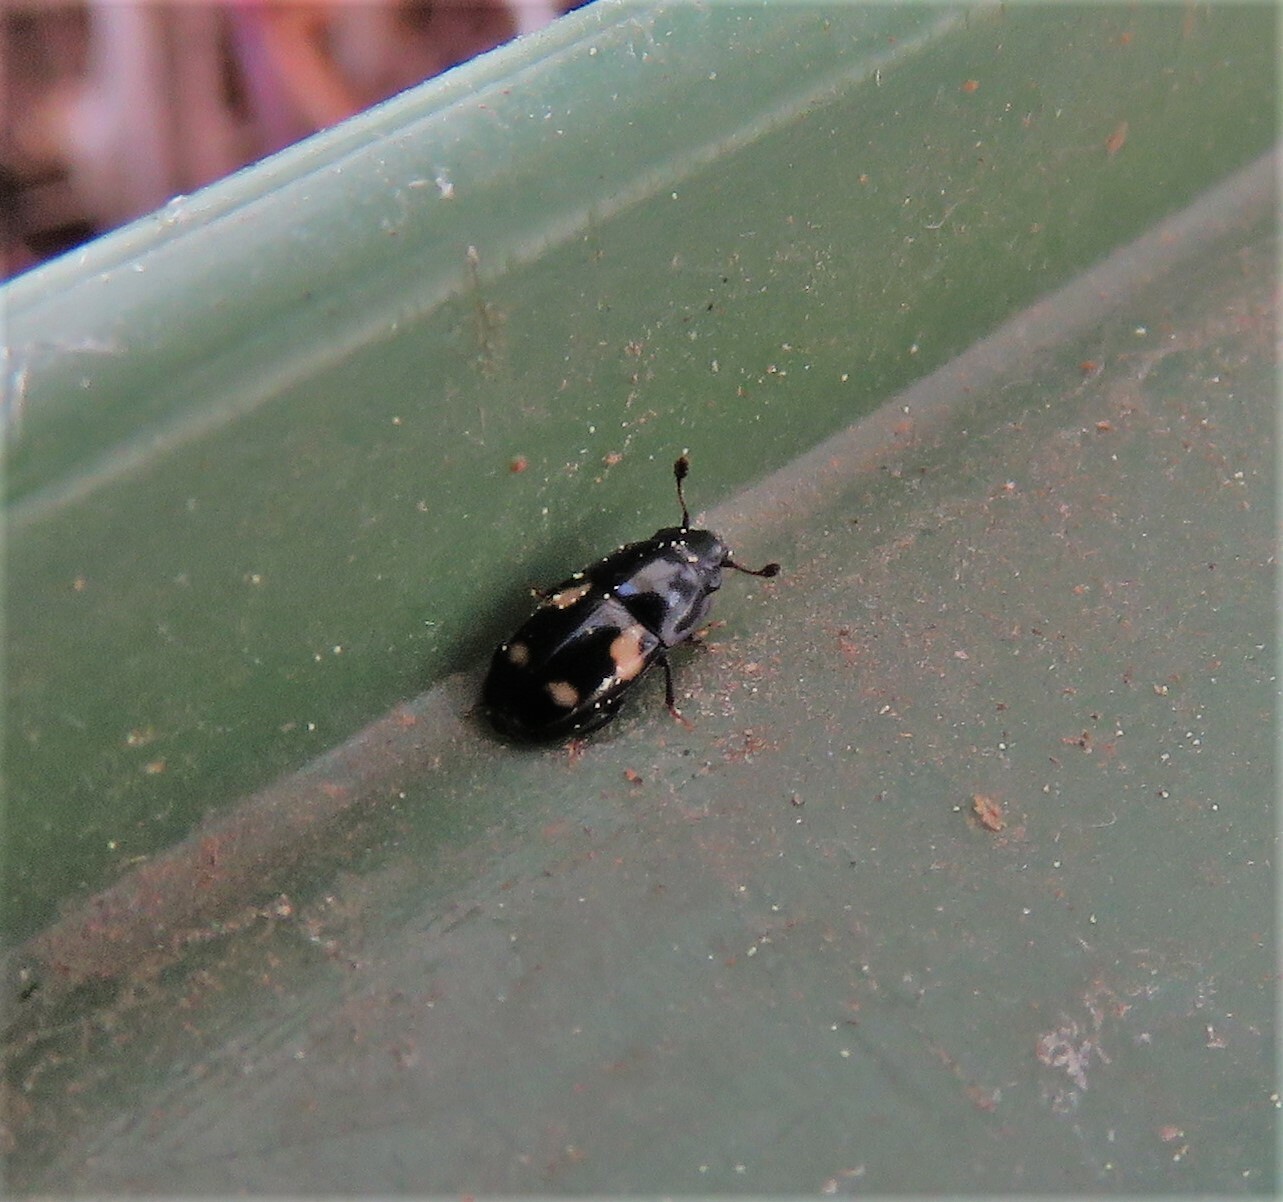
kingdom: Animalia
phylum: Arthropoda
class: Insecta
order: Coleoptera
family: Nitidulidae
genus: Glischrochilus
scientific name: Glischrochilus quadrisignatus
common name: Picnic beetle
